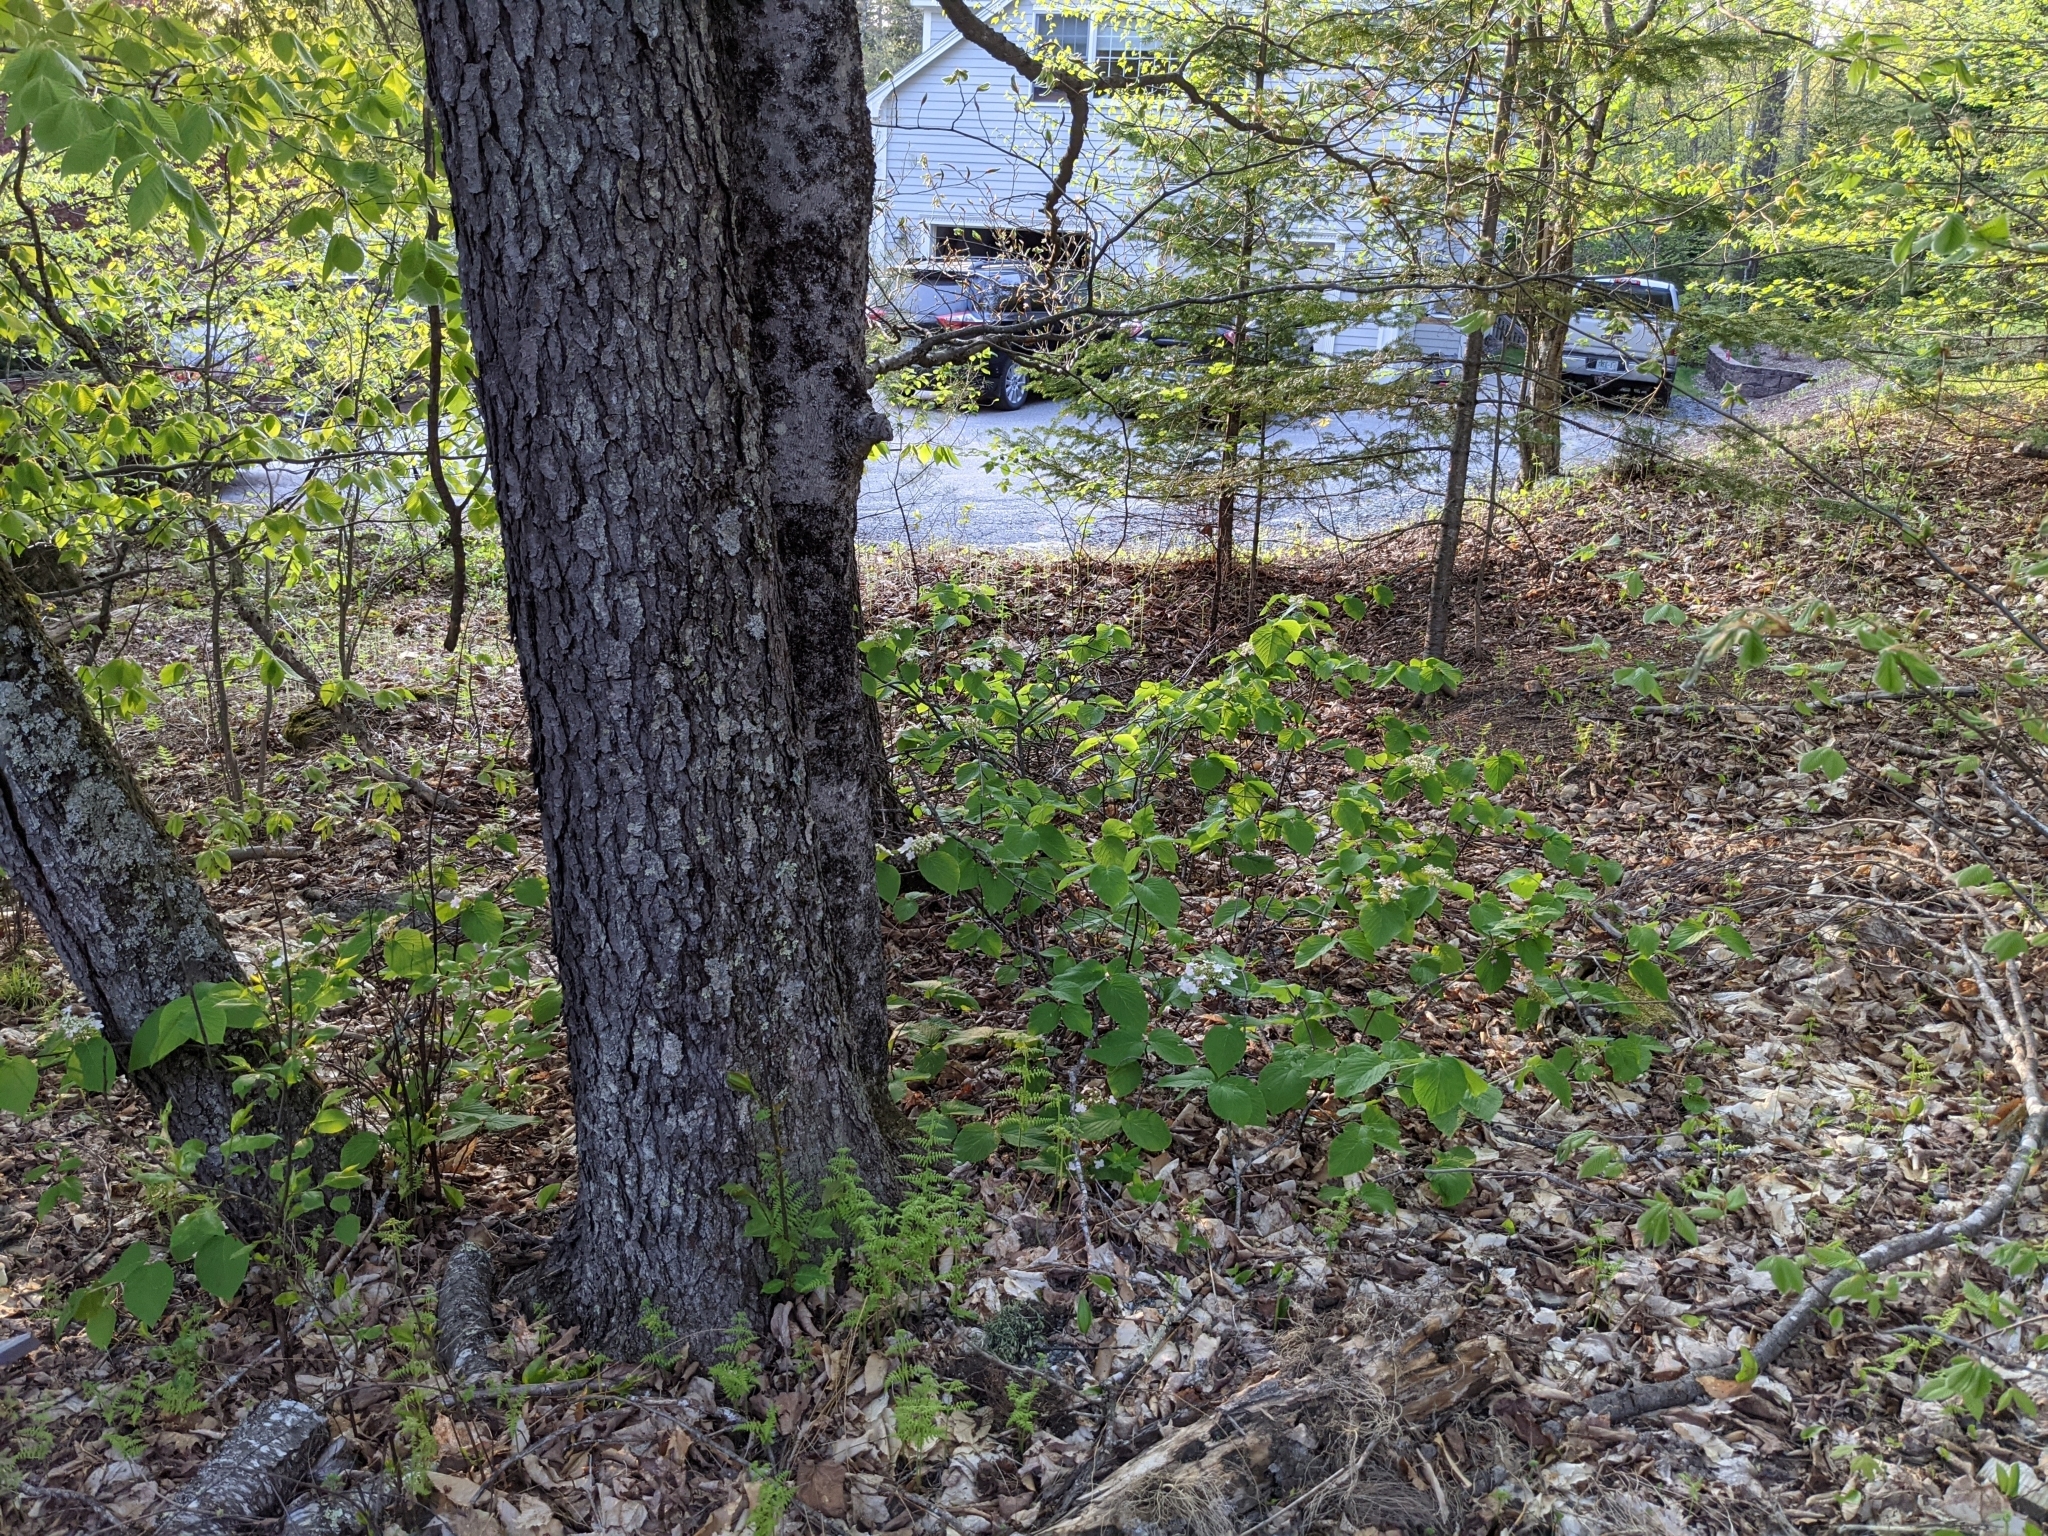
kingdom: Plantae
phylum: Tracheophyta
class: Magnoliopsida
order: Dipsacales
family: Viburnaceae
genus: Viburnum
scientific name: Viburnum lantanoides
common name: Hobblebush
